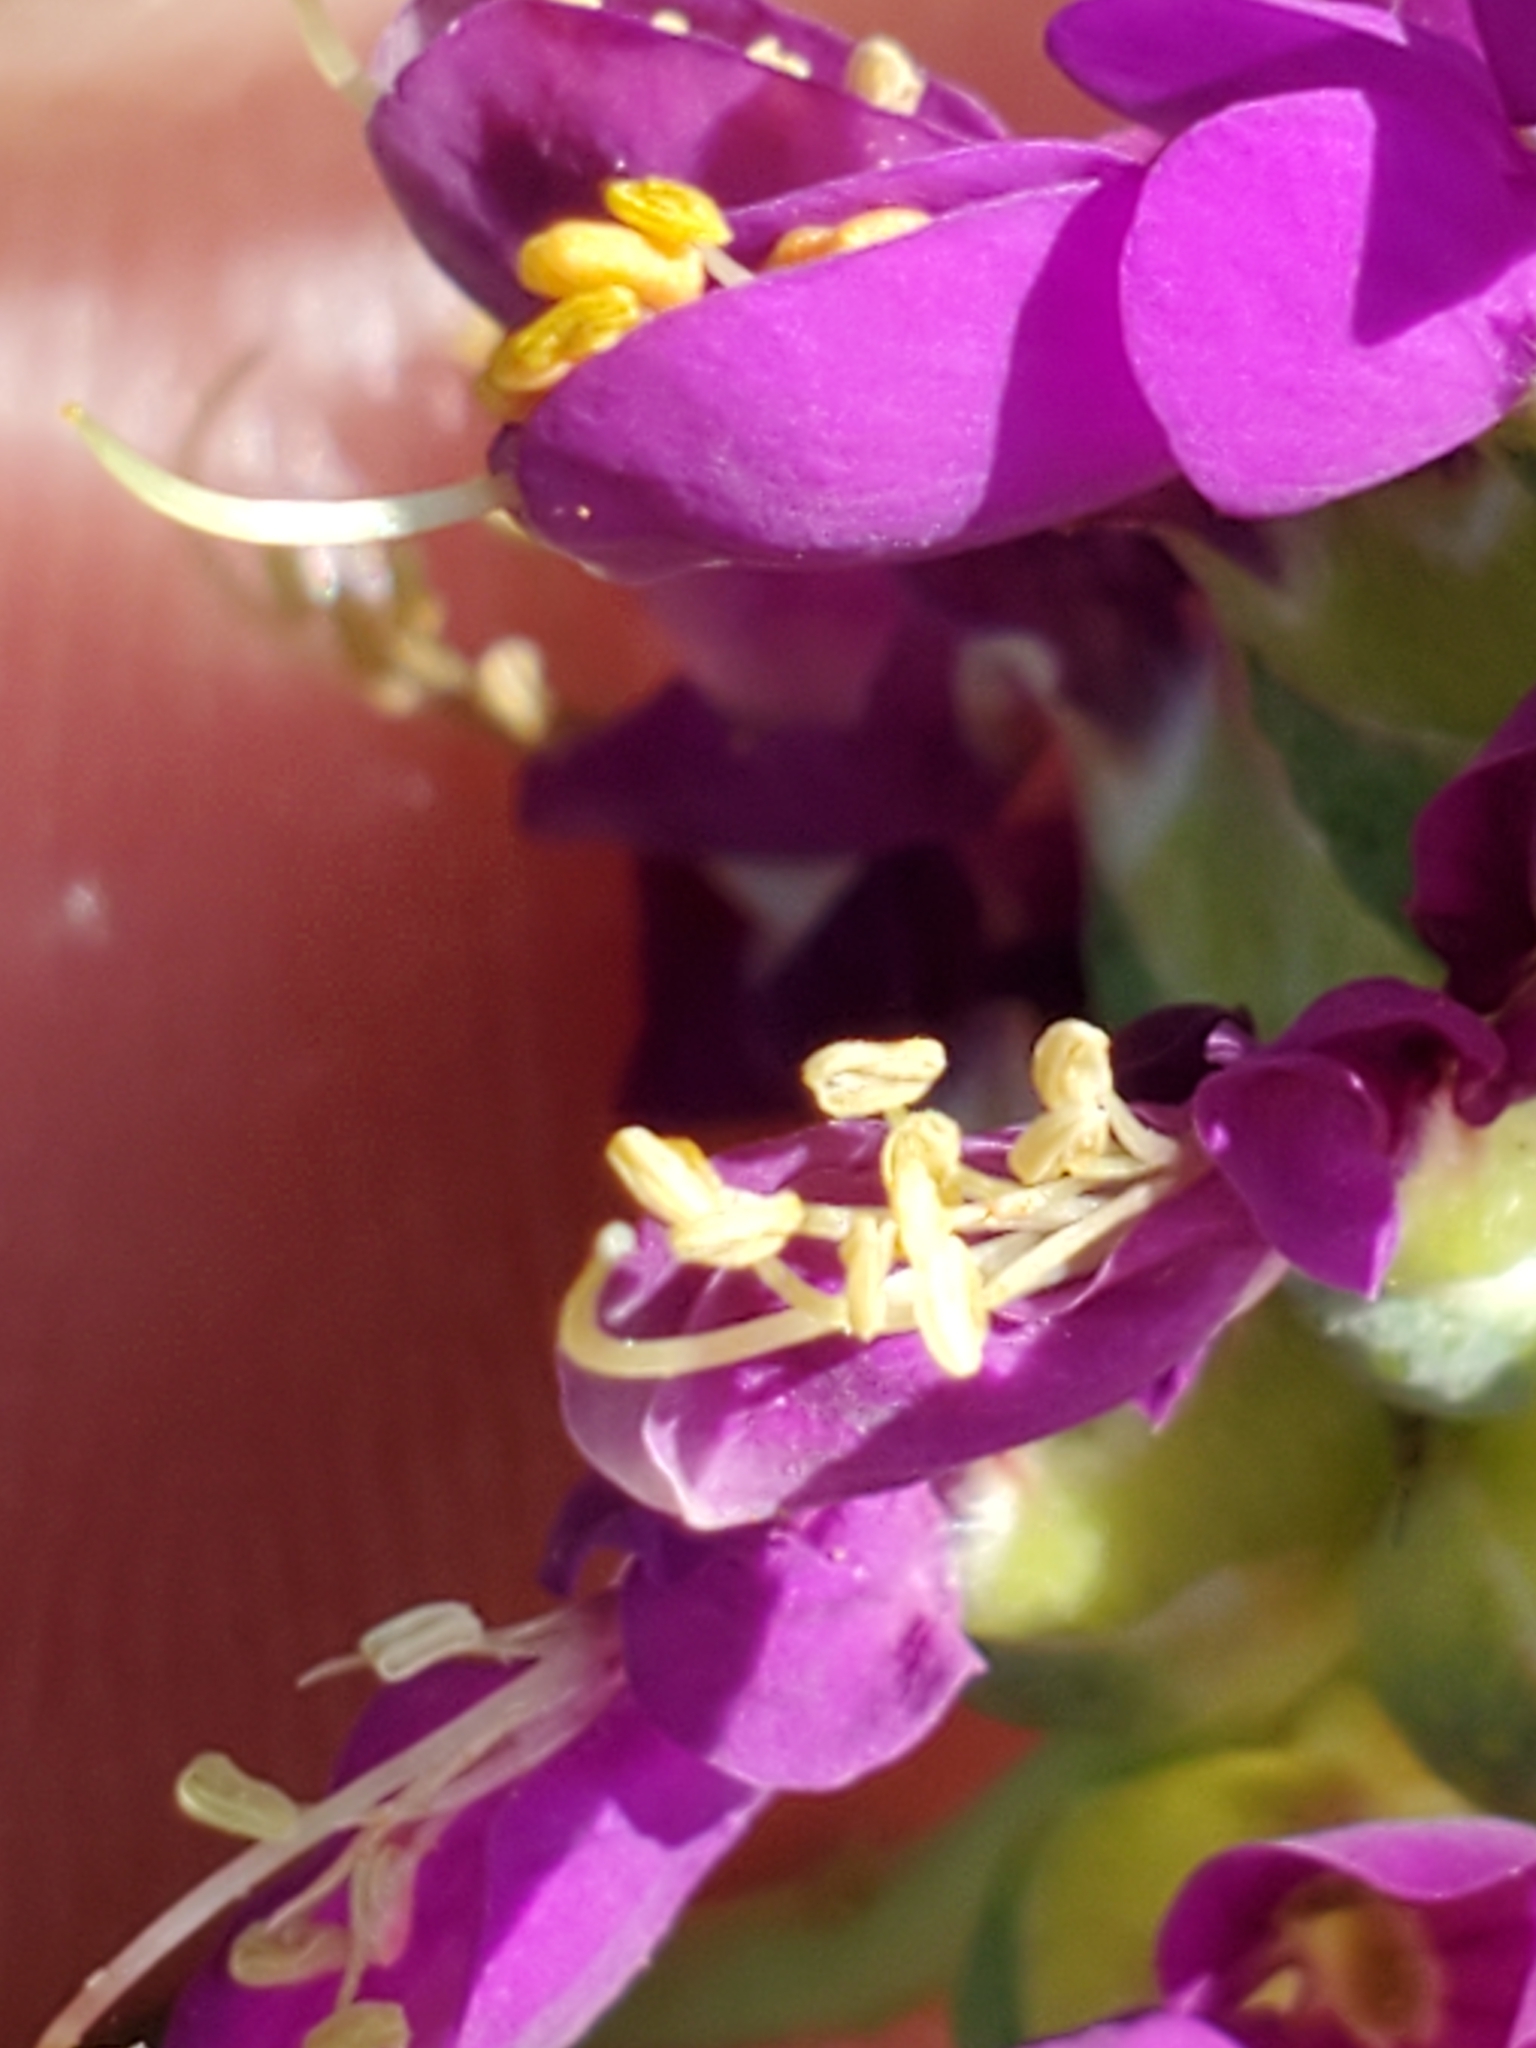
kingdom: Plantae
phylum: Tracheophyta
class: Magnoliopsida
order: Fabales
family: Fabaceae
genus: Dalea
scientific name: Dalea lasiathera
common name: Purple prairie-clover
